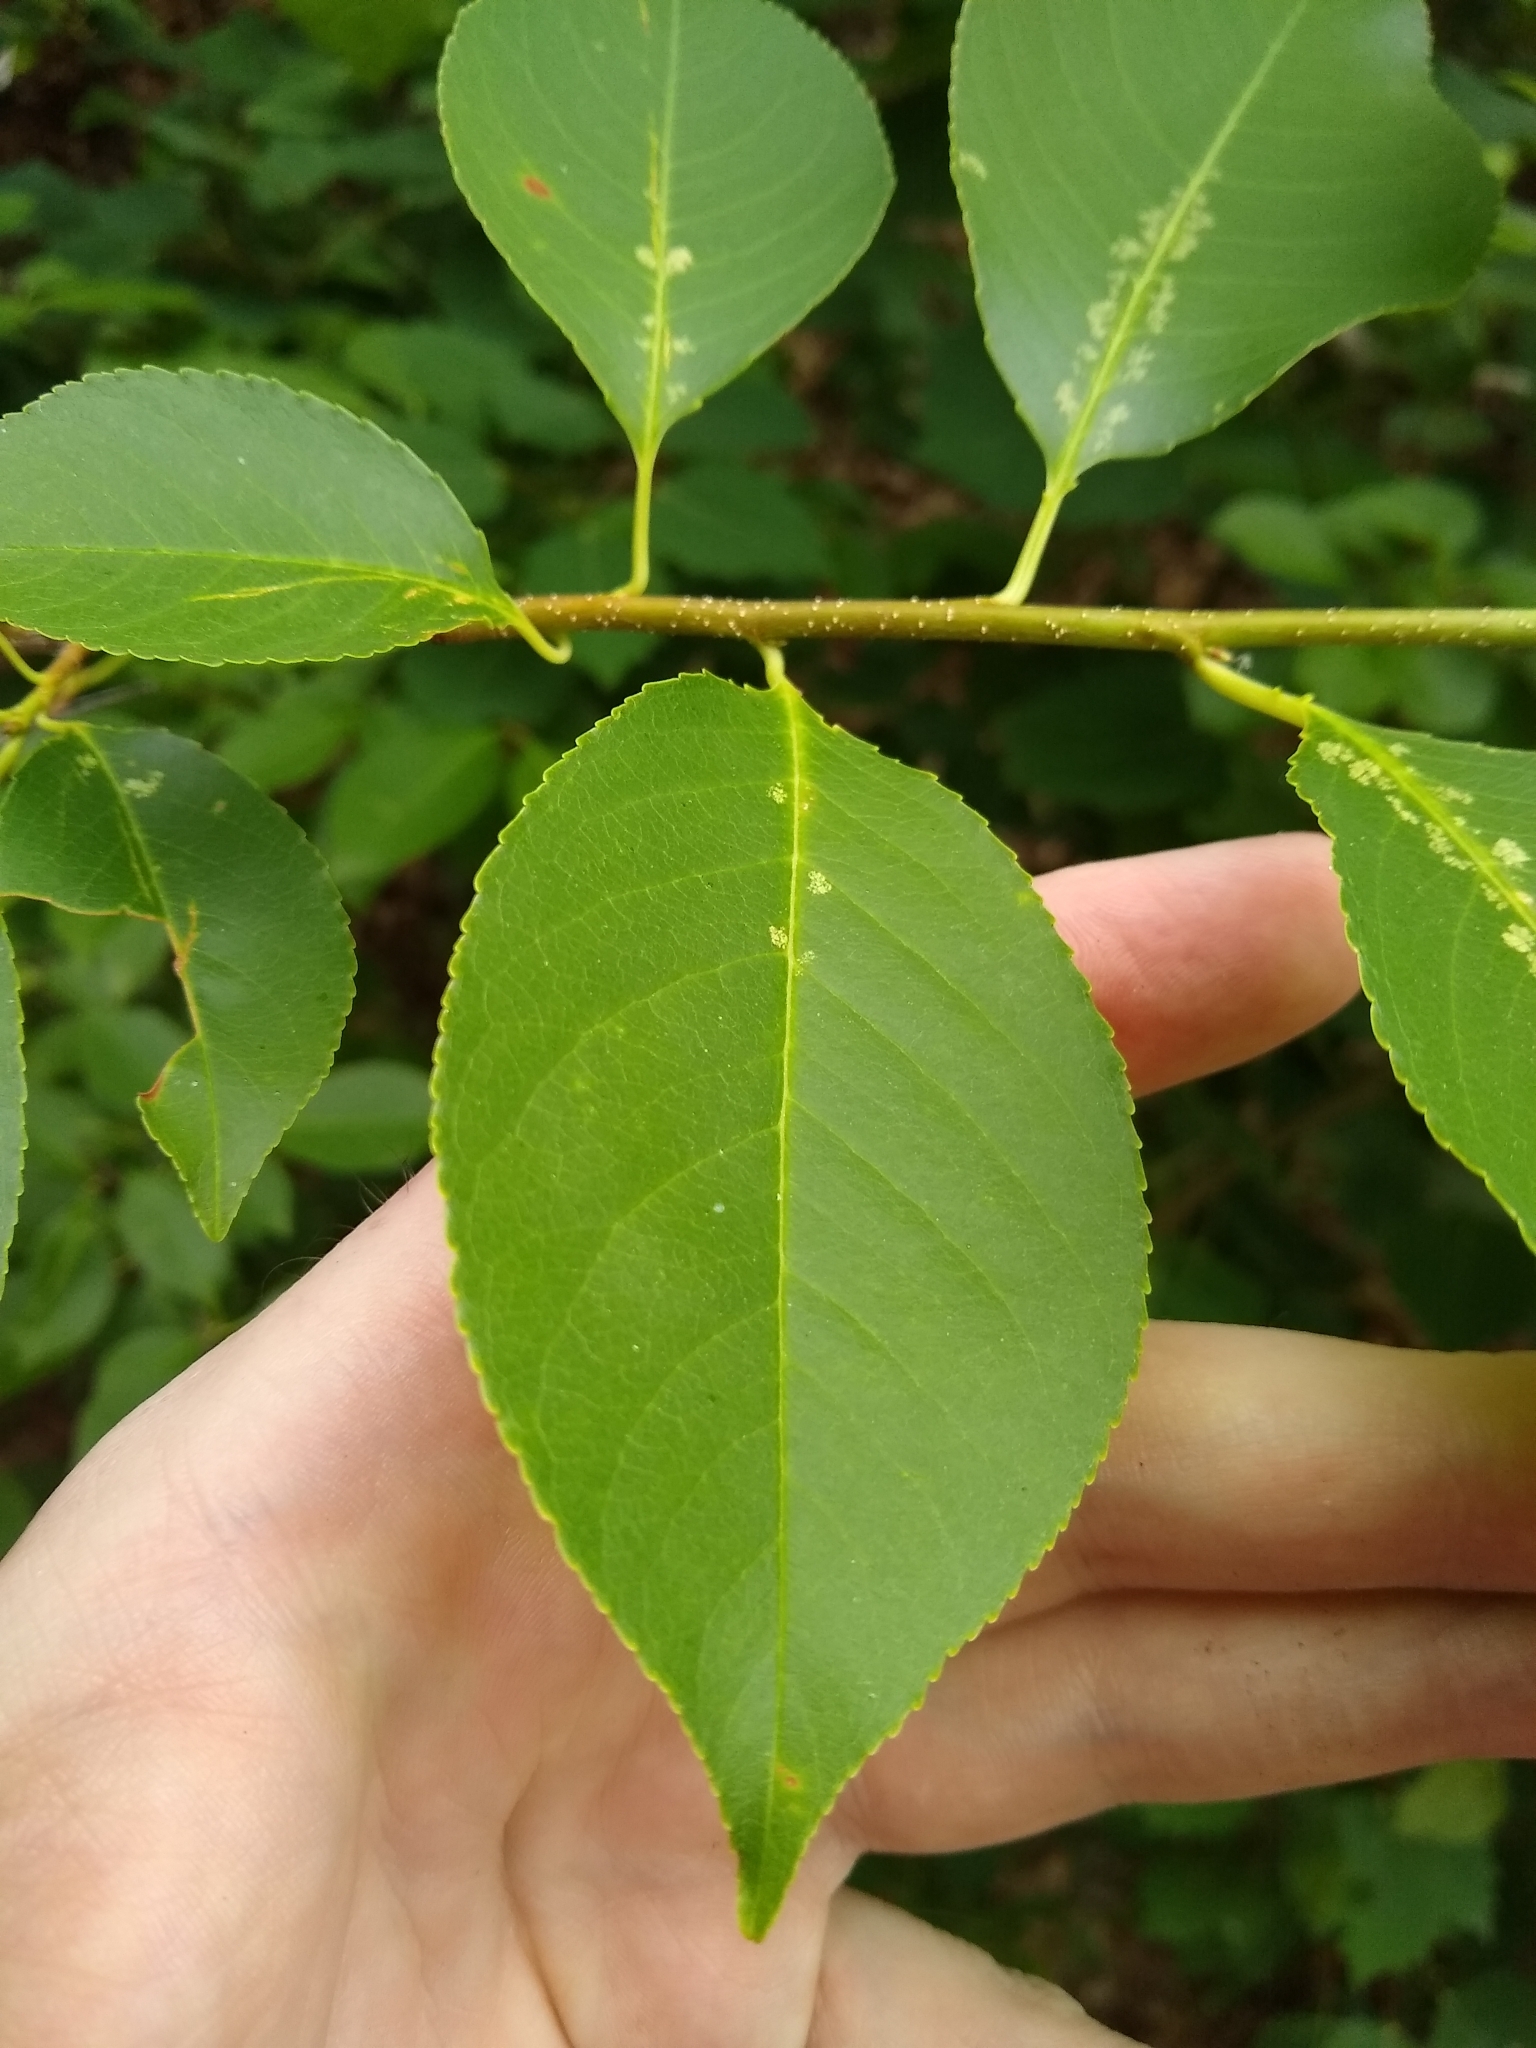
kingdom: Plantae
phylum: Tracheophyta
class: Magnoliopsida
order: Rosales
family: Rosaceae
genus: Prunus
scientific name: Prunus serotina
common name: Black cherry
